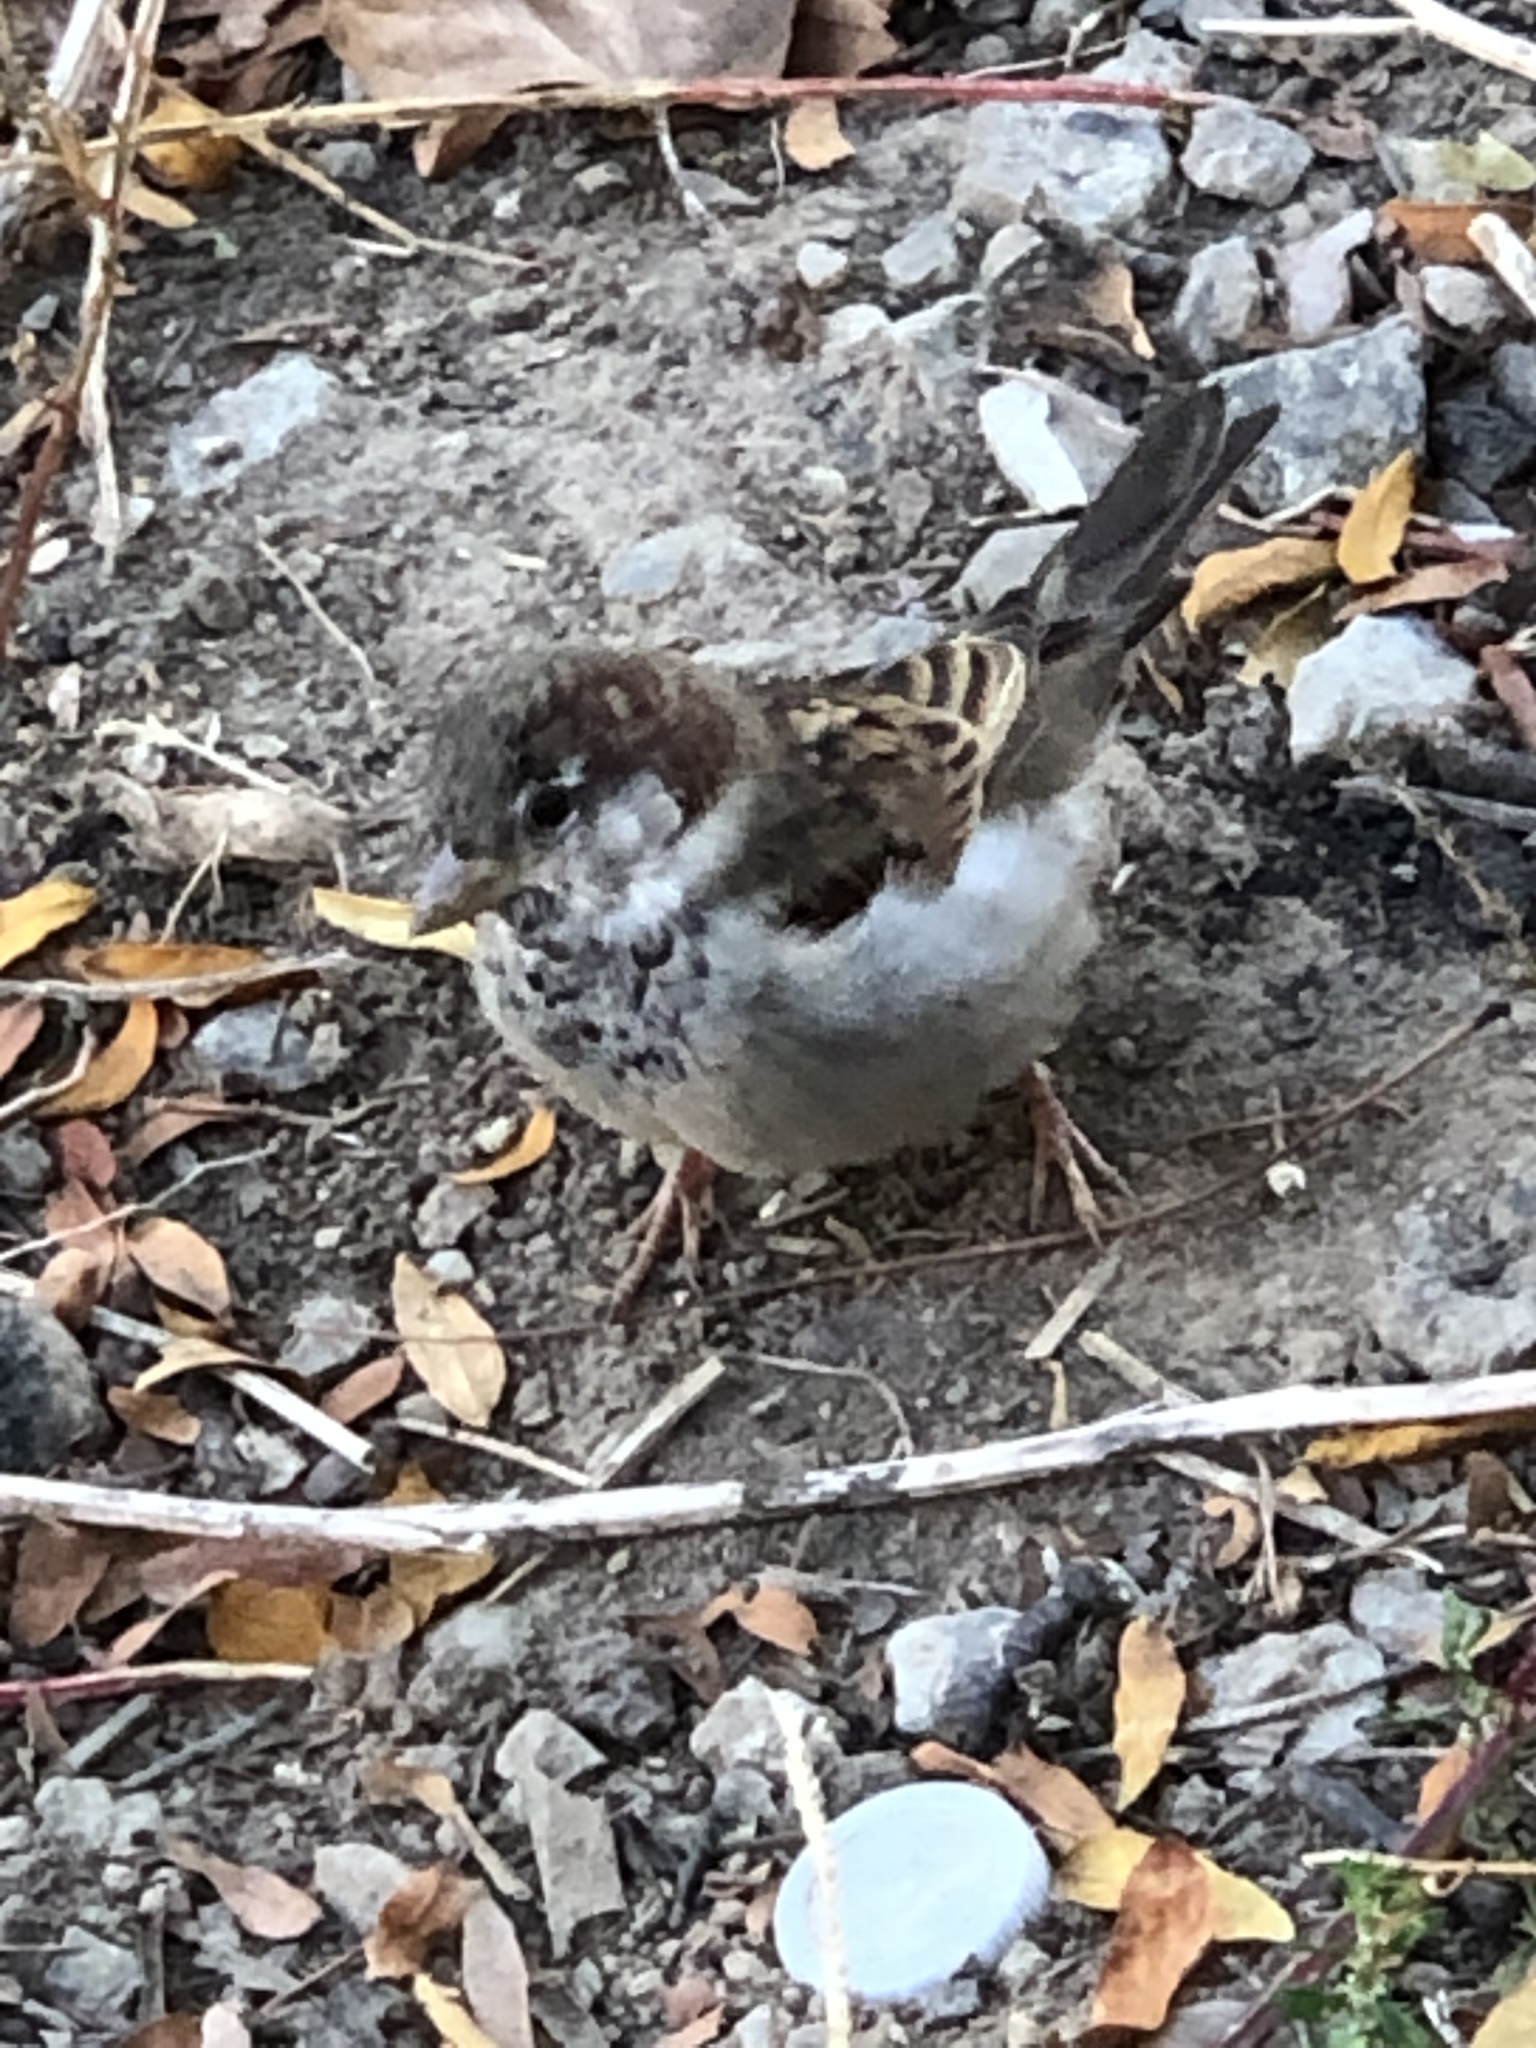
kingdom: Animalia
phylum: Chordata
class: Aves
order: Passeriformes
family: Passeridae
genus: Passer
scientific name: Passer domesticus
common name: House sparrow
